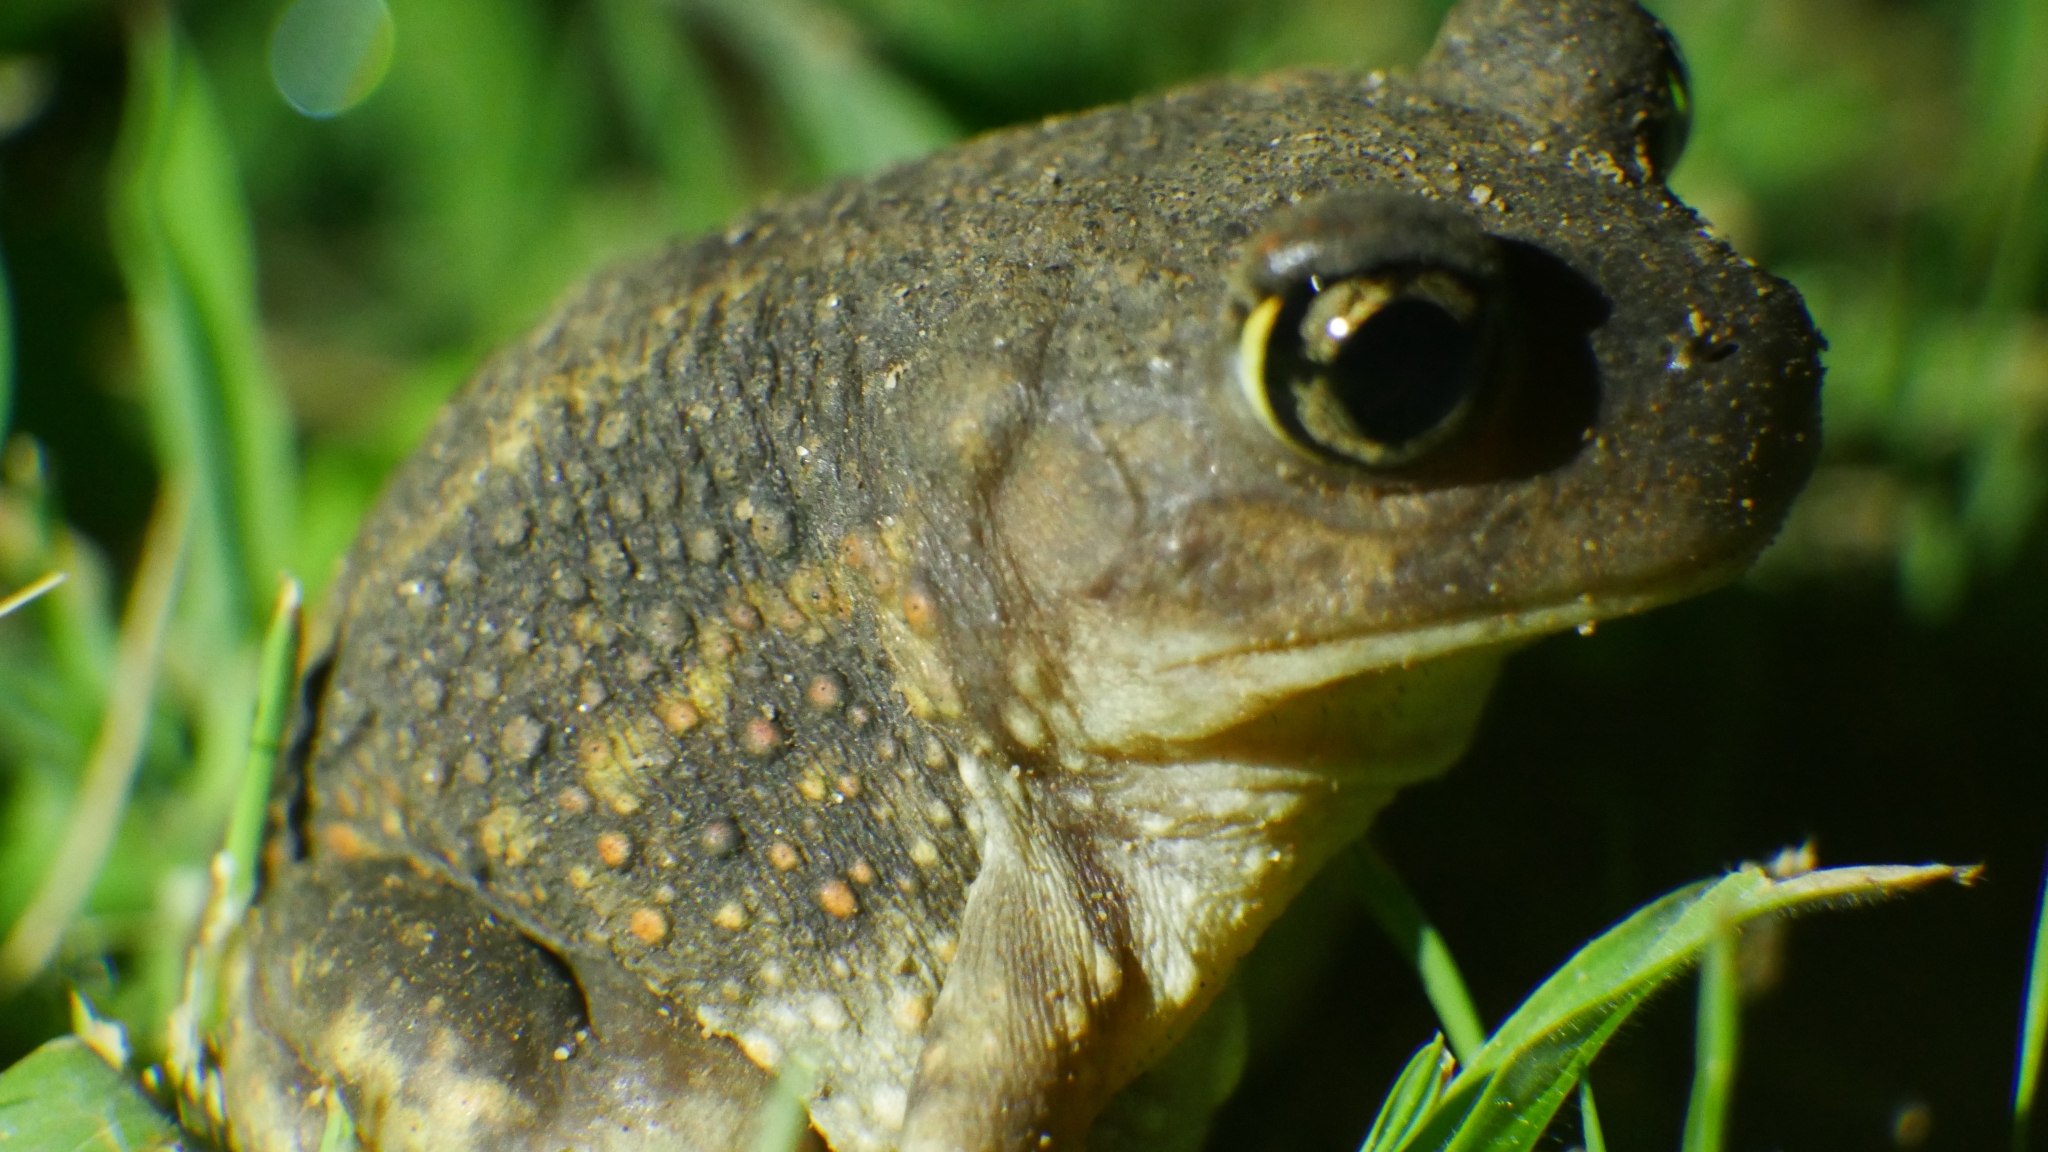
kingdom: Animalia
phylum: Chordata
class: Amphibia
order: Anura
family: Scaphiopodidae
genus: Scaphiopus
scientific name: Scaphiopus holbrookii
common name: Eastern spadefoot toad
